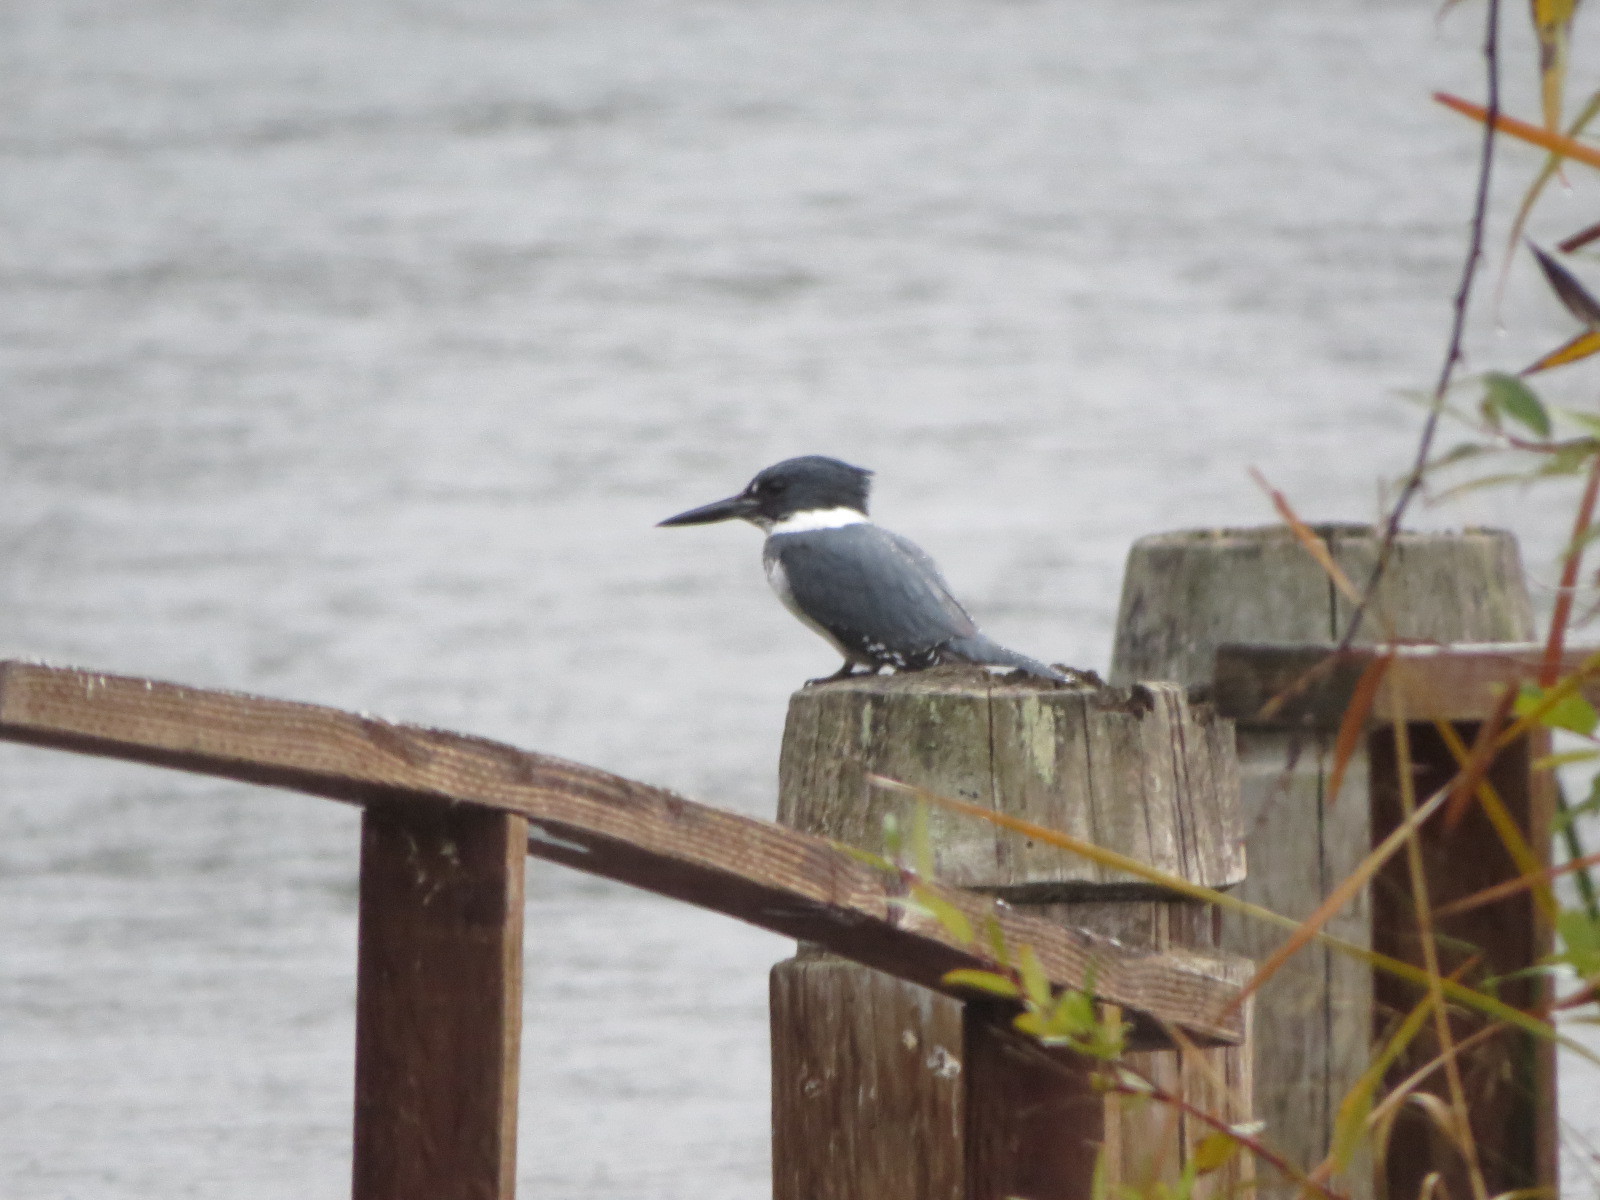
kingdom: Animalia
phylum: Chordata
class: Aves
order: Coraciiformes
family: Alcedinidae
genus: Megaceryle
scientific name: Megaceryle alcyon
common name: Belted kingfisher
